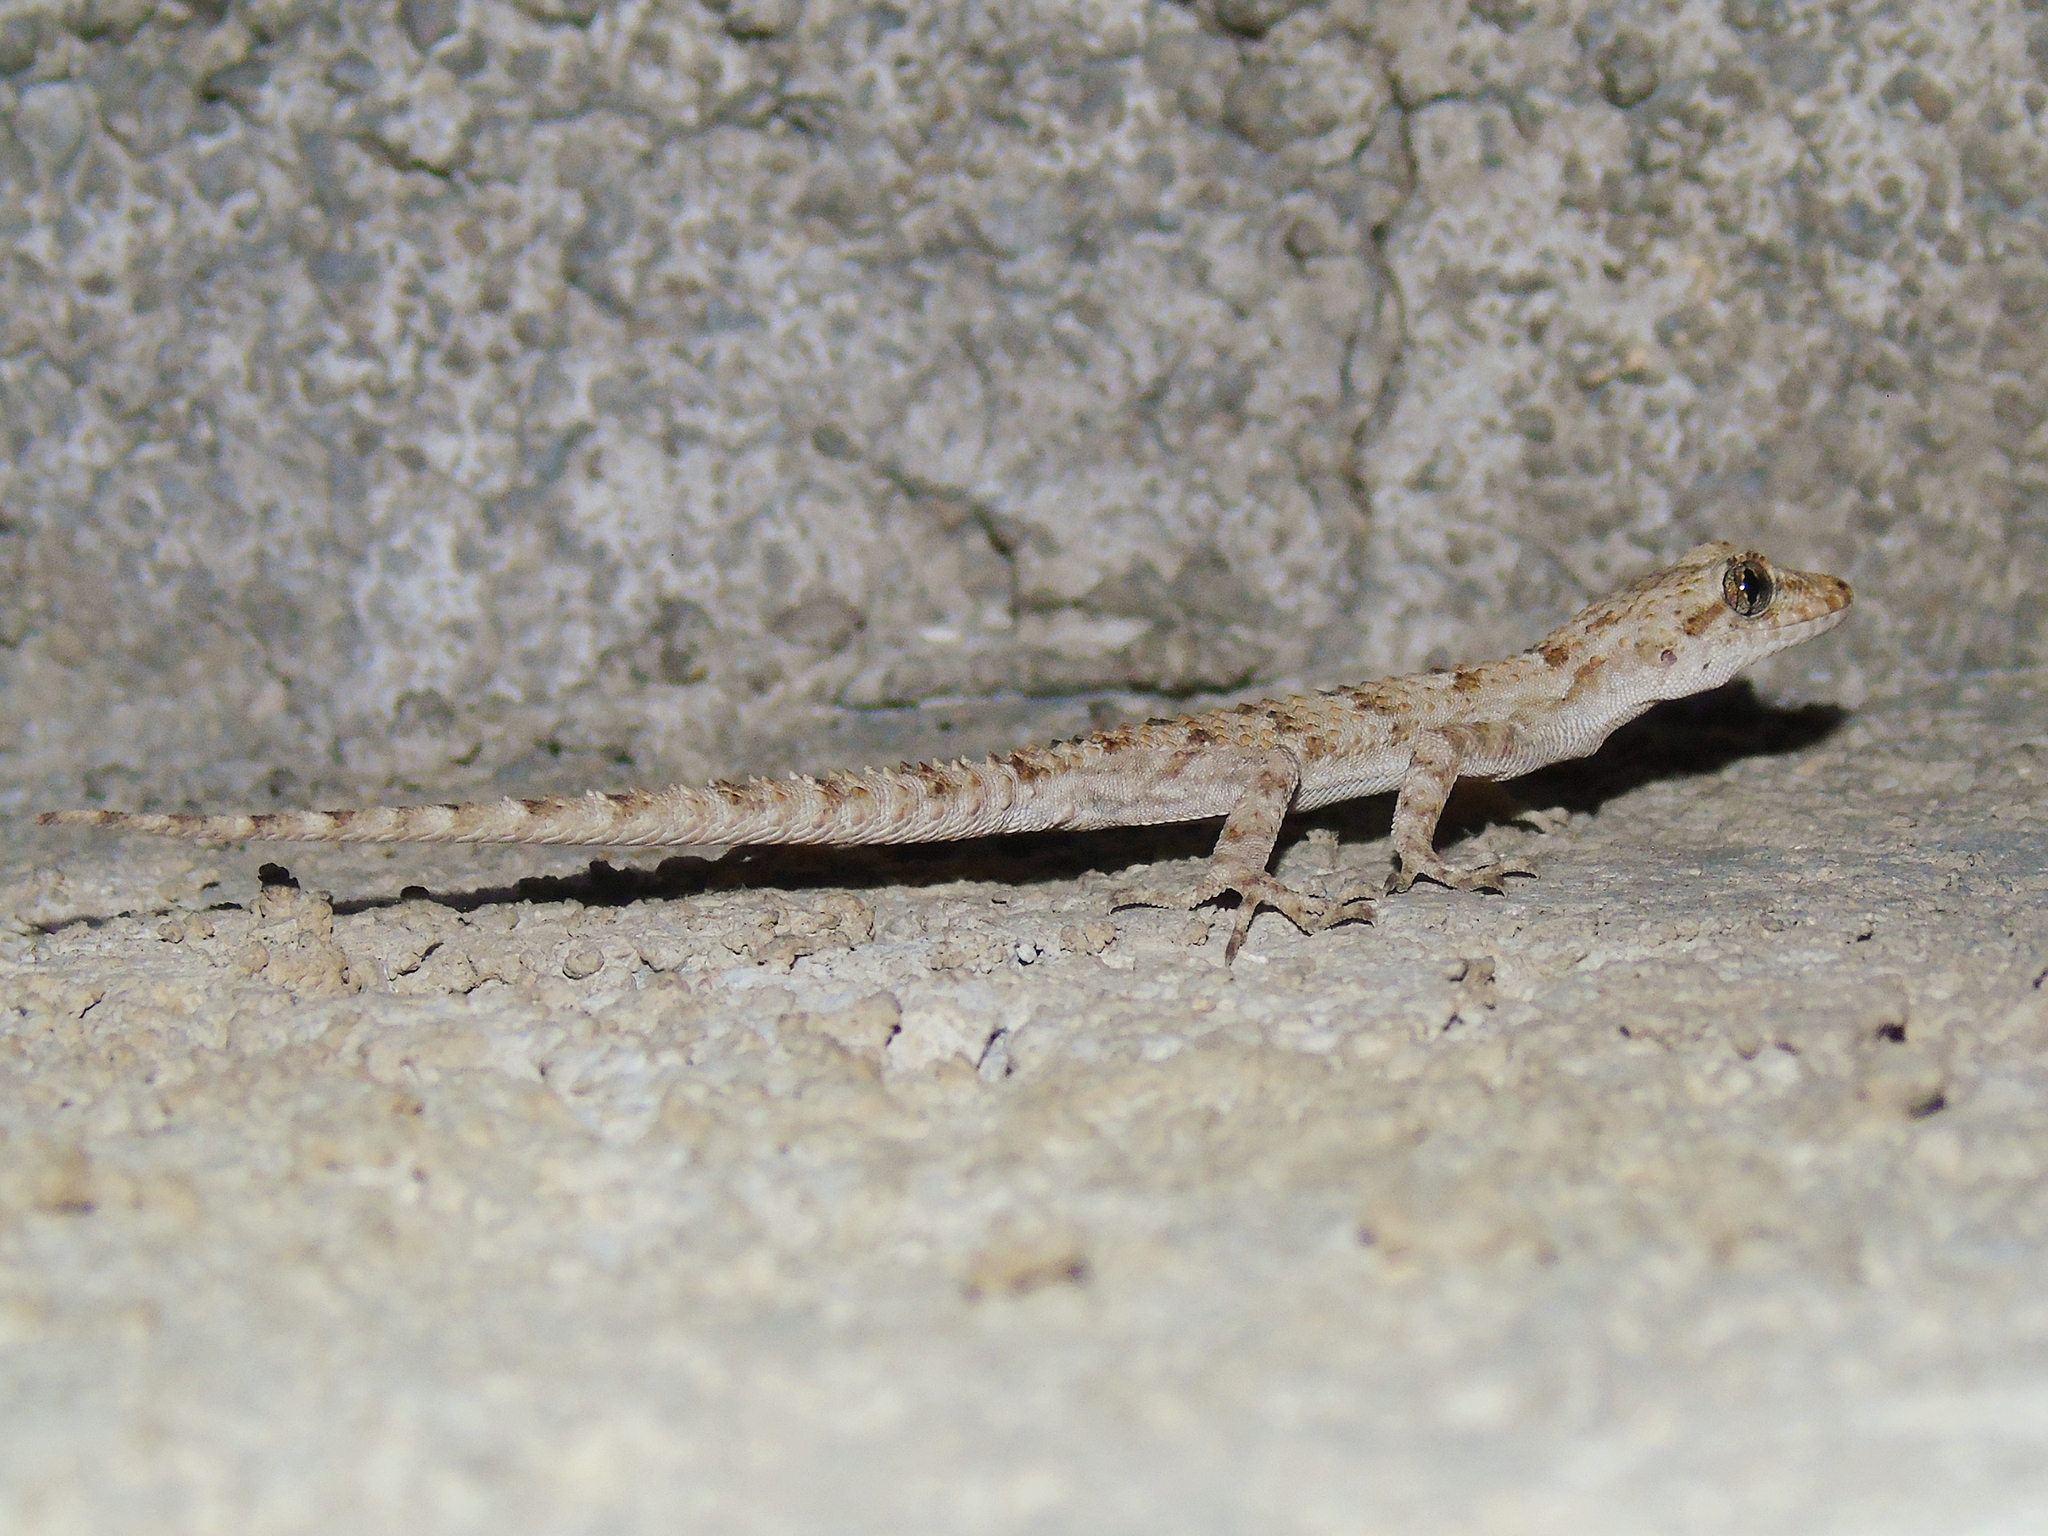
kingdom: Animalia
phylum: Chordata
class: Squamata
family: Gekkonidae
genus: Mediodactylus
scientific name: Mediodactylus kotschyi
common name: Kotschy's gecko
